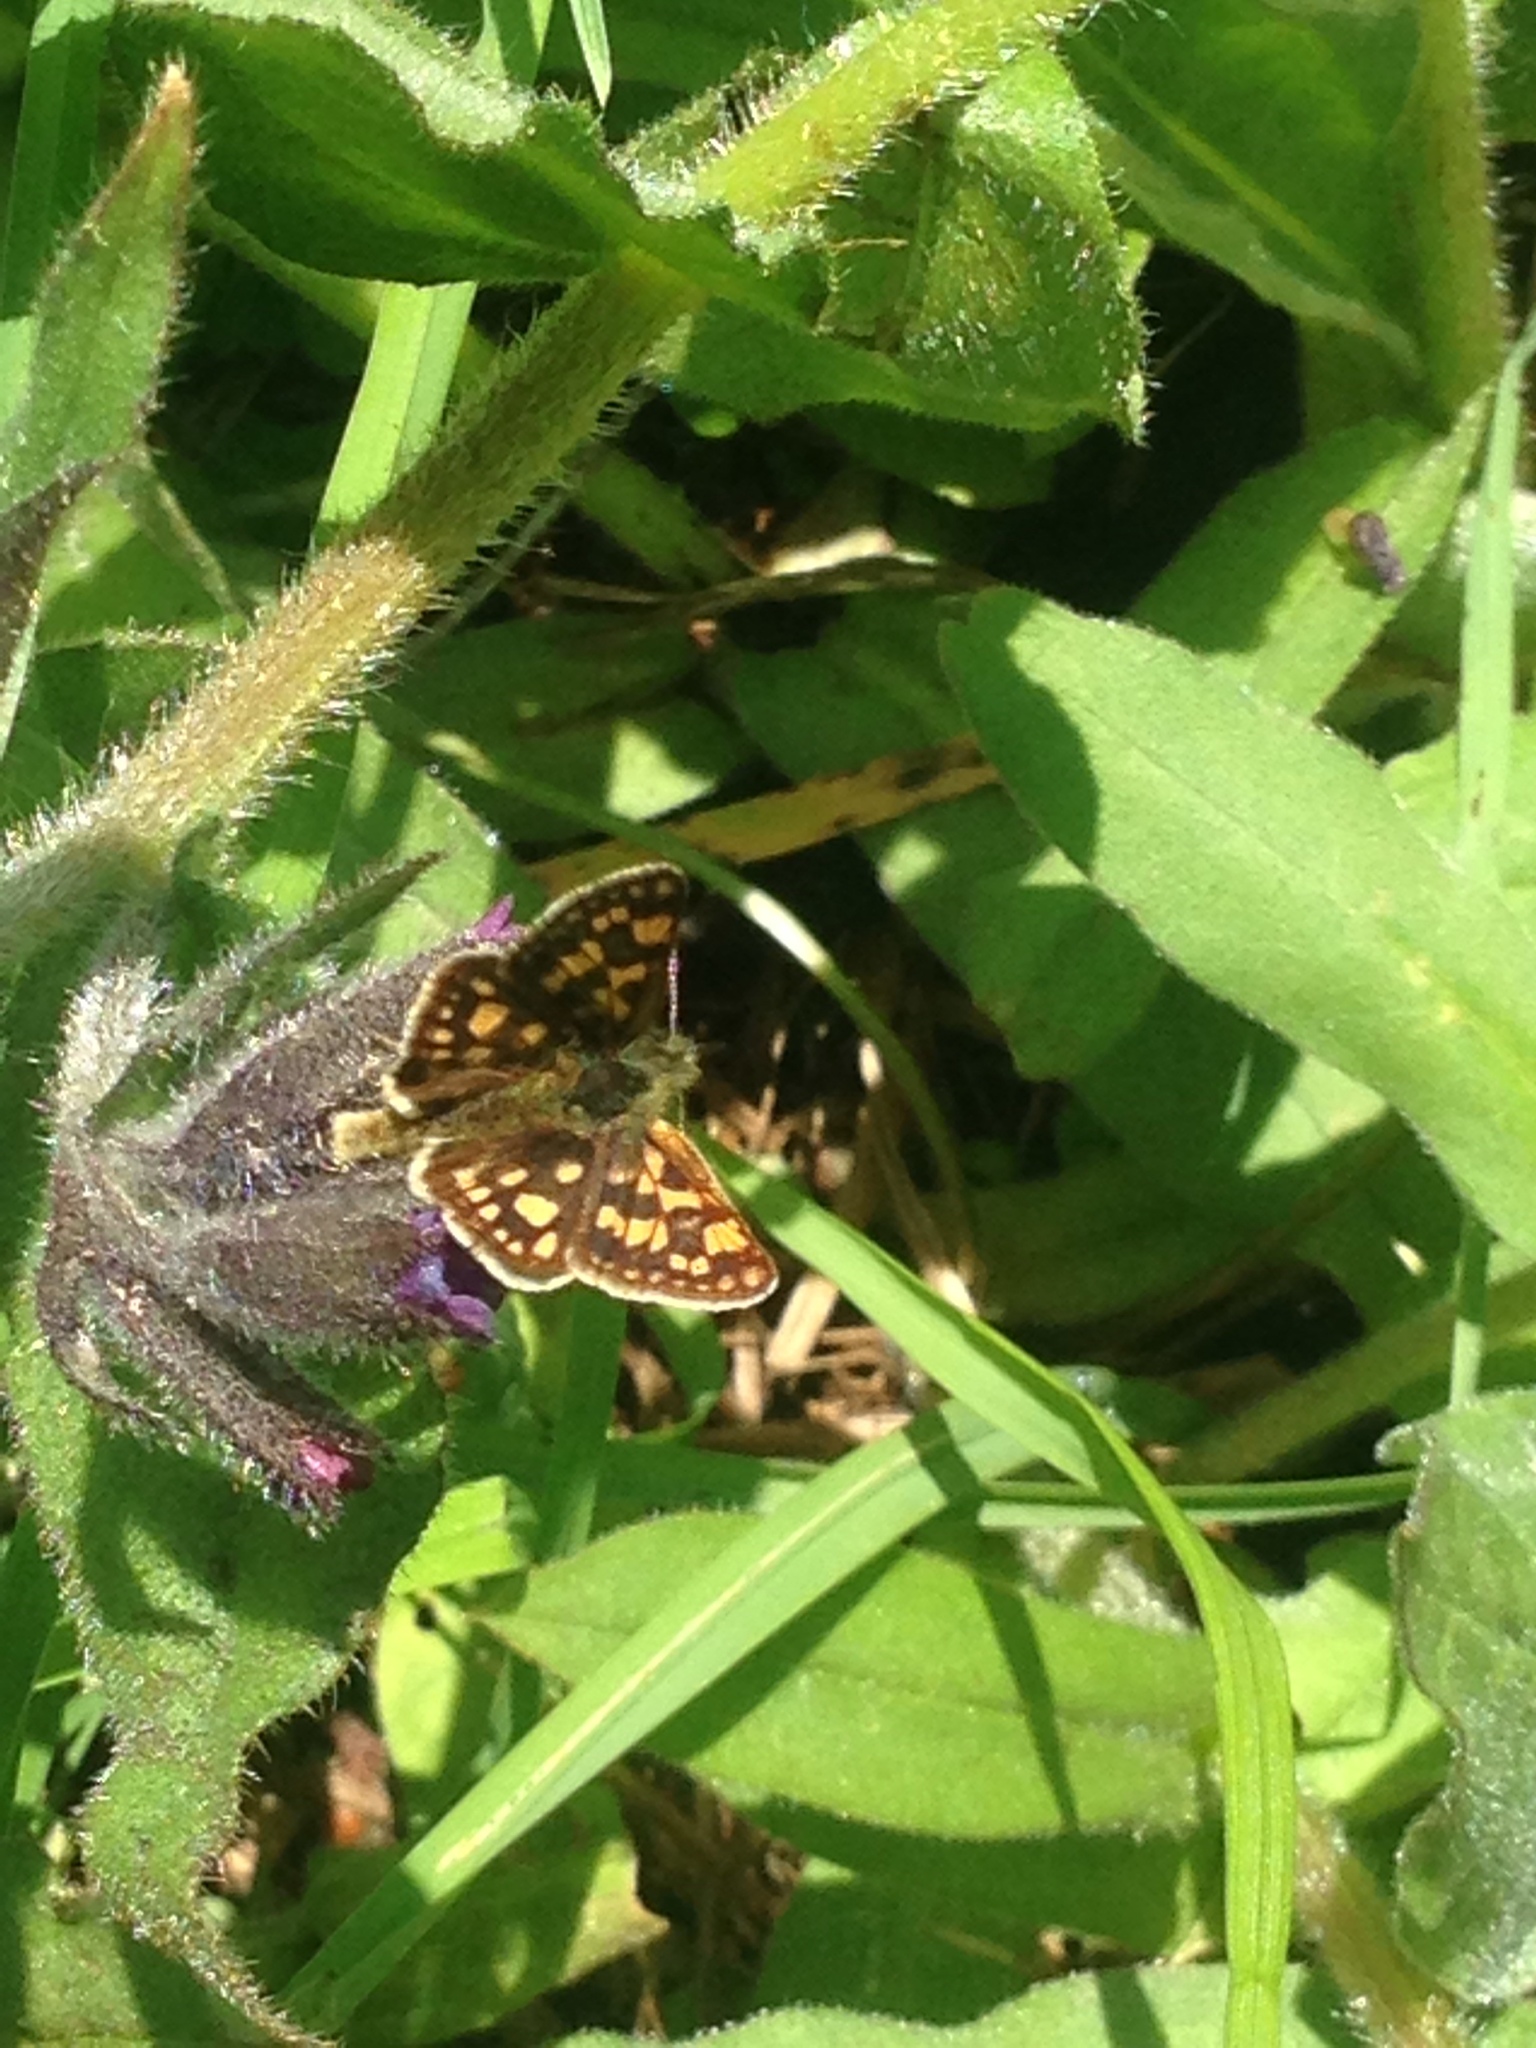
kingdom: Animalia
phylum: Arthropoda
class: Insecta
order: Lepidoptera
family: Hesperiidae
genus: Carterocephalus
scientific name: Carterocephalus palaemon
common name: Chequered skipper
